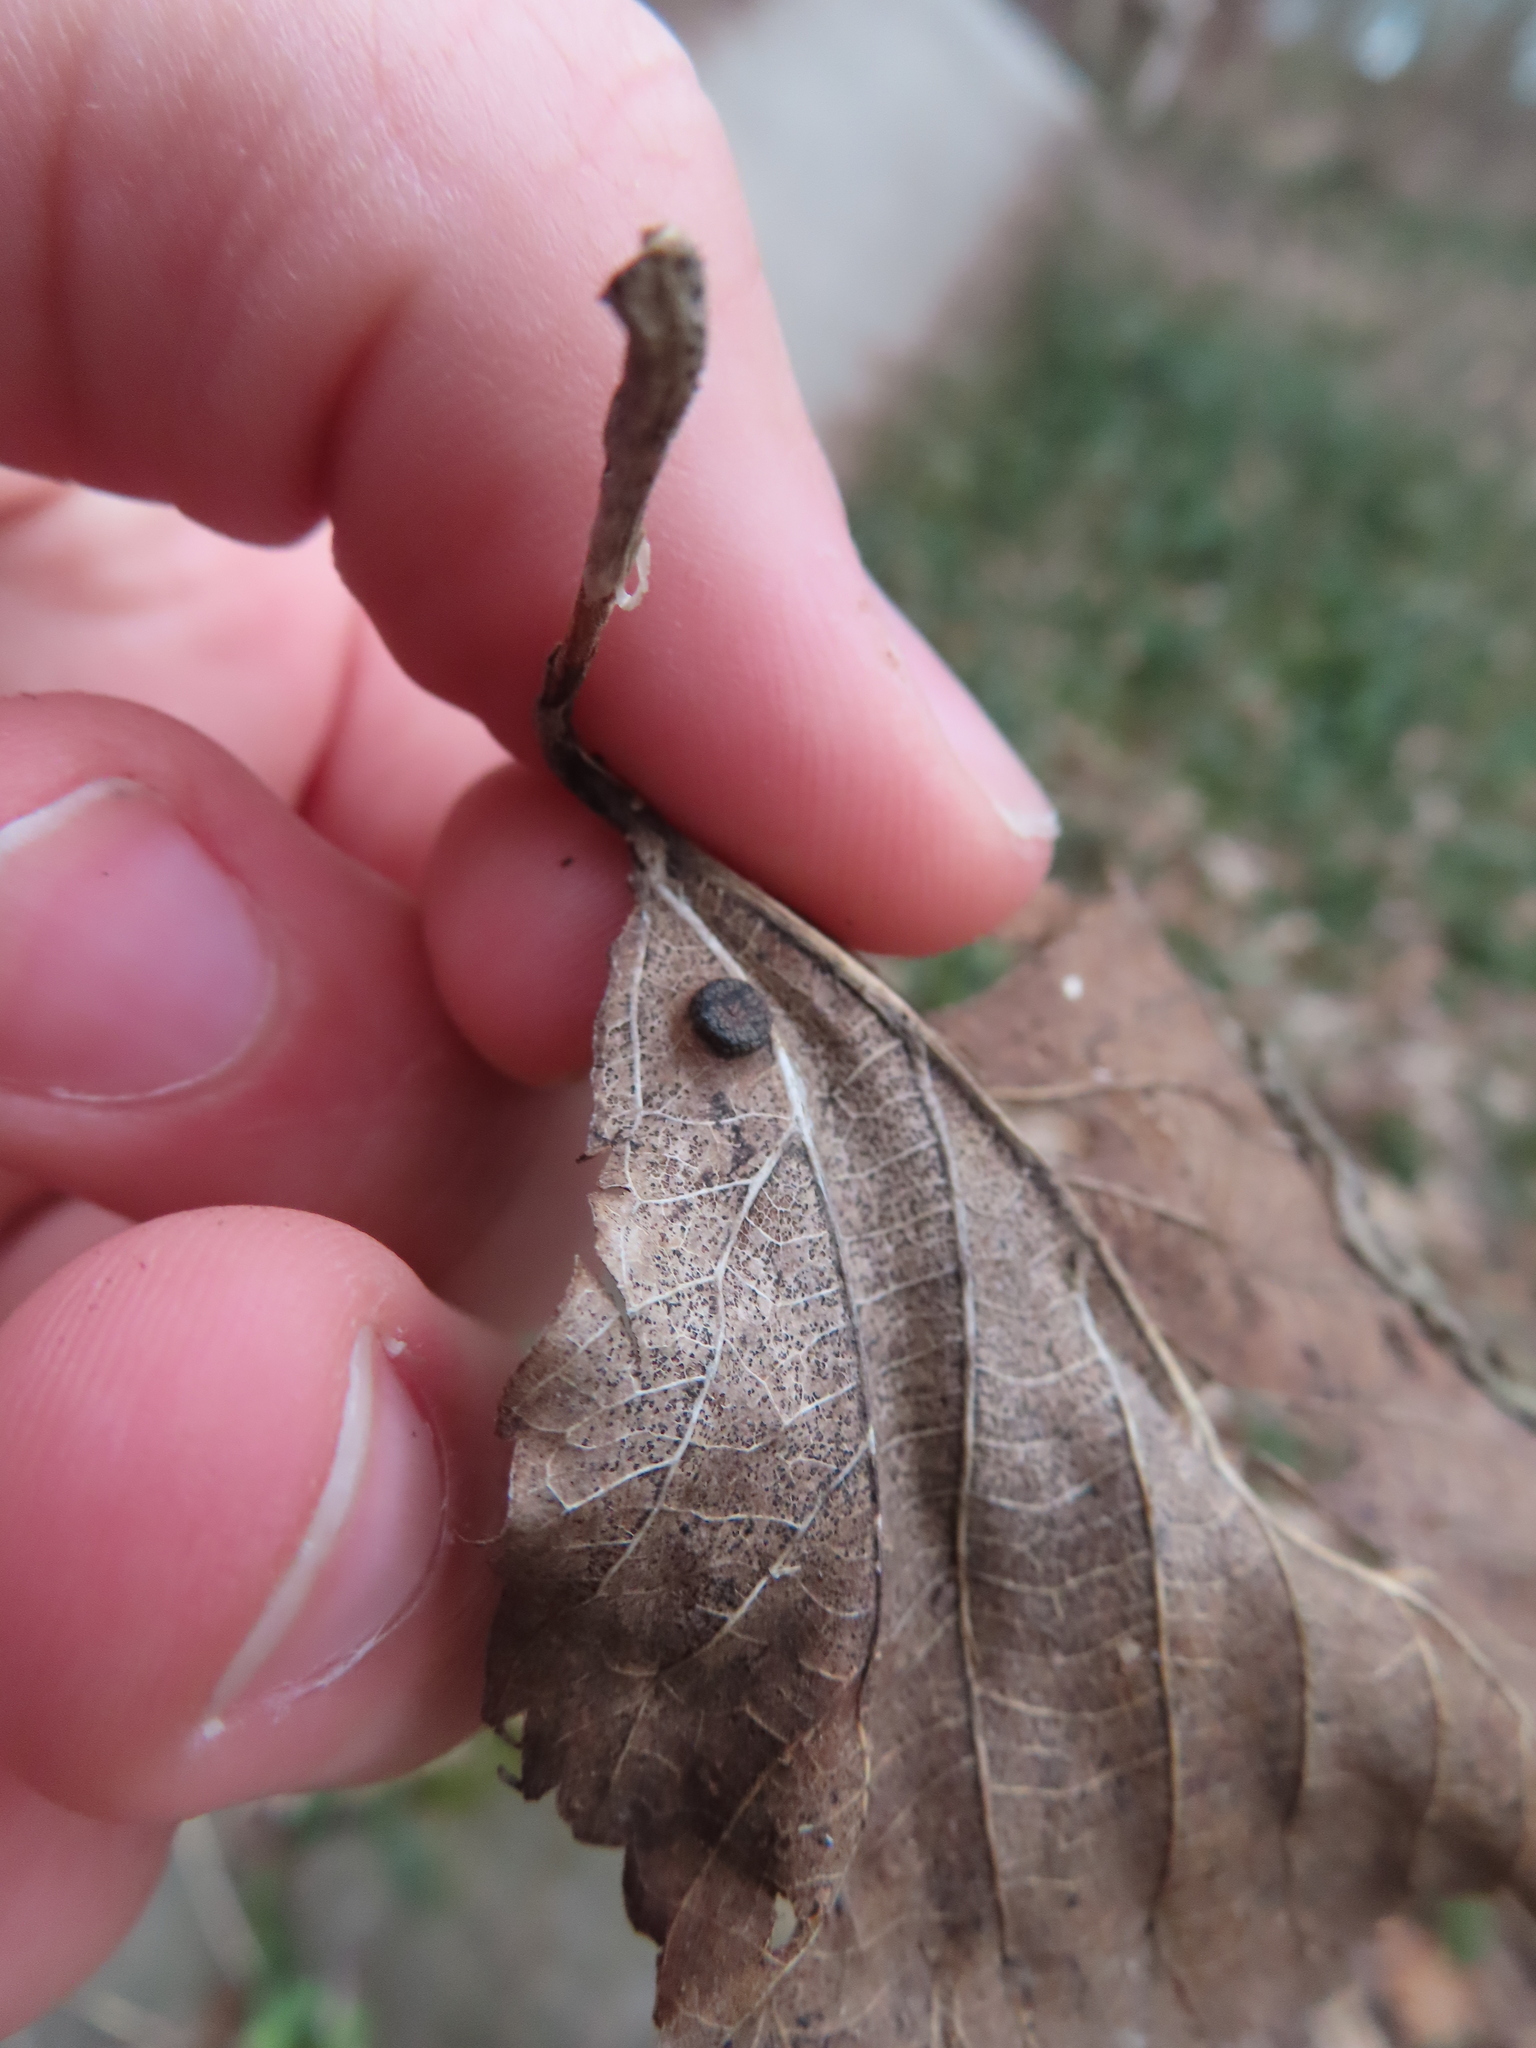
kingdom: Animalia
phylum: Arthropoda
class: Insecta
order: Diptera
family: Cecidomyiidae
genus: Contarinia
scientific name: Contarinia verrucicola
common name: Linden wart gall midge
